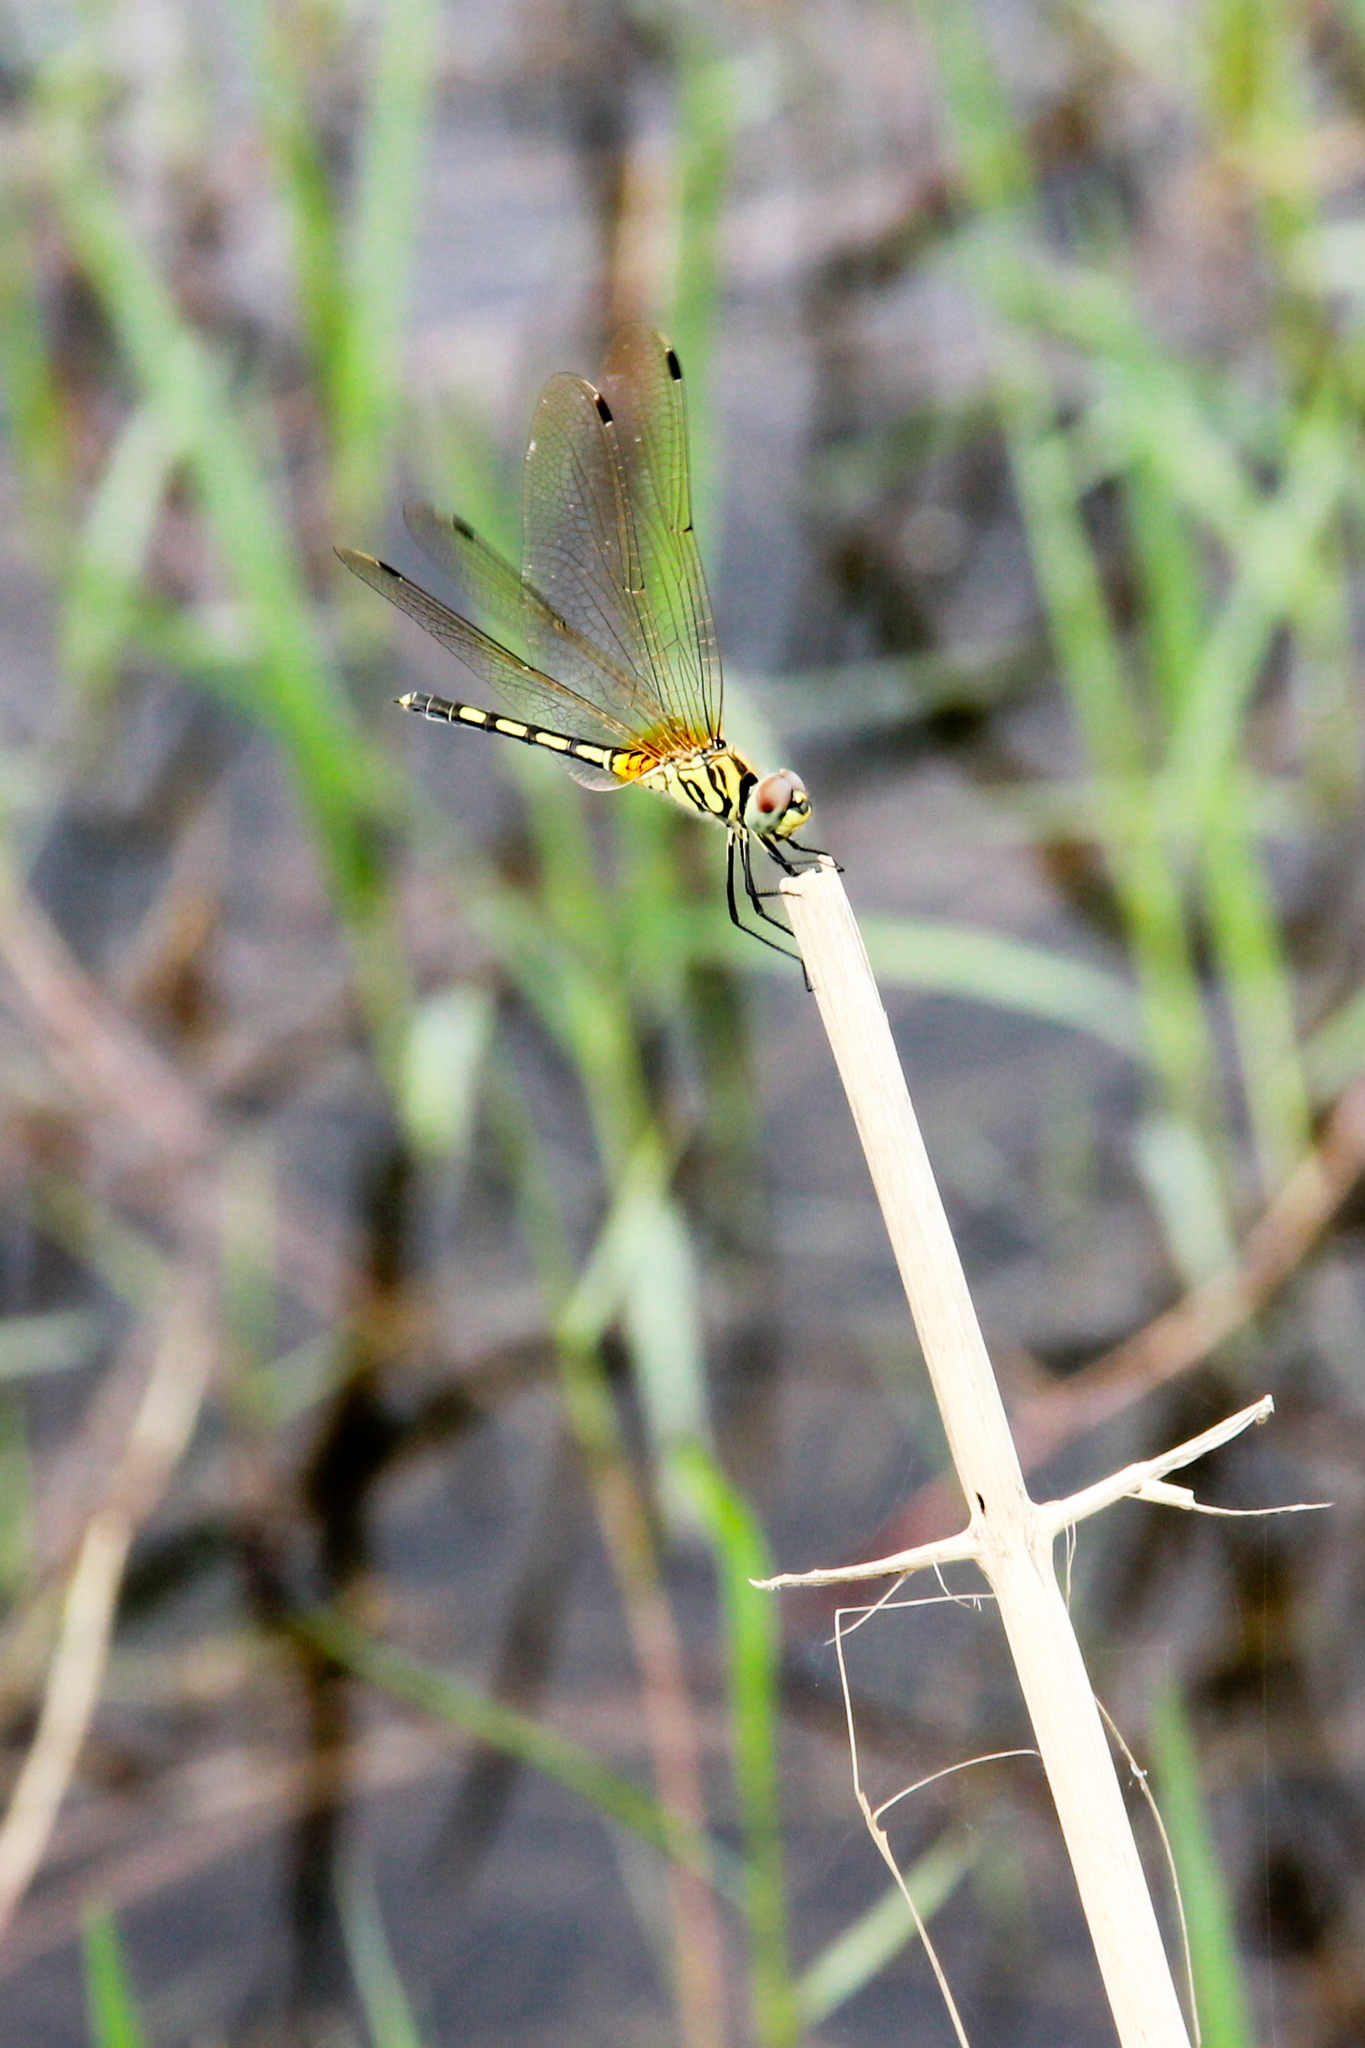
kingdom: Animalia
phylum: Arthropoda
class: Insecta
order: Odonata
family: Libellulidae
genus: Trithemis
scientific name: Trithemis pallidinervis
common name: Dancing dropwing
